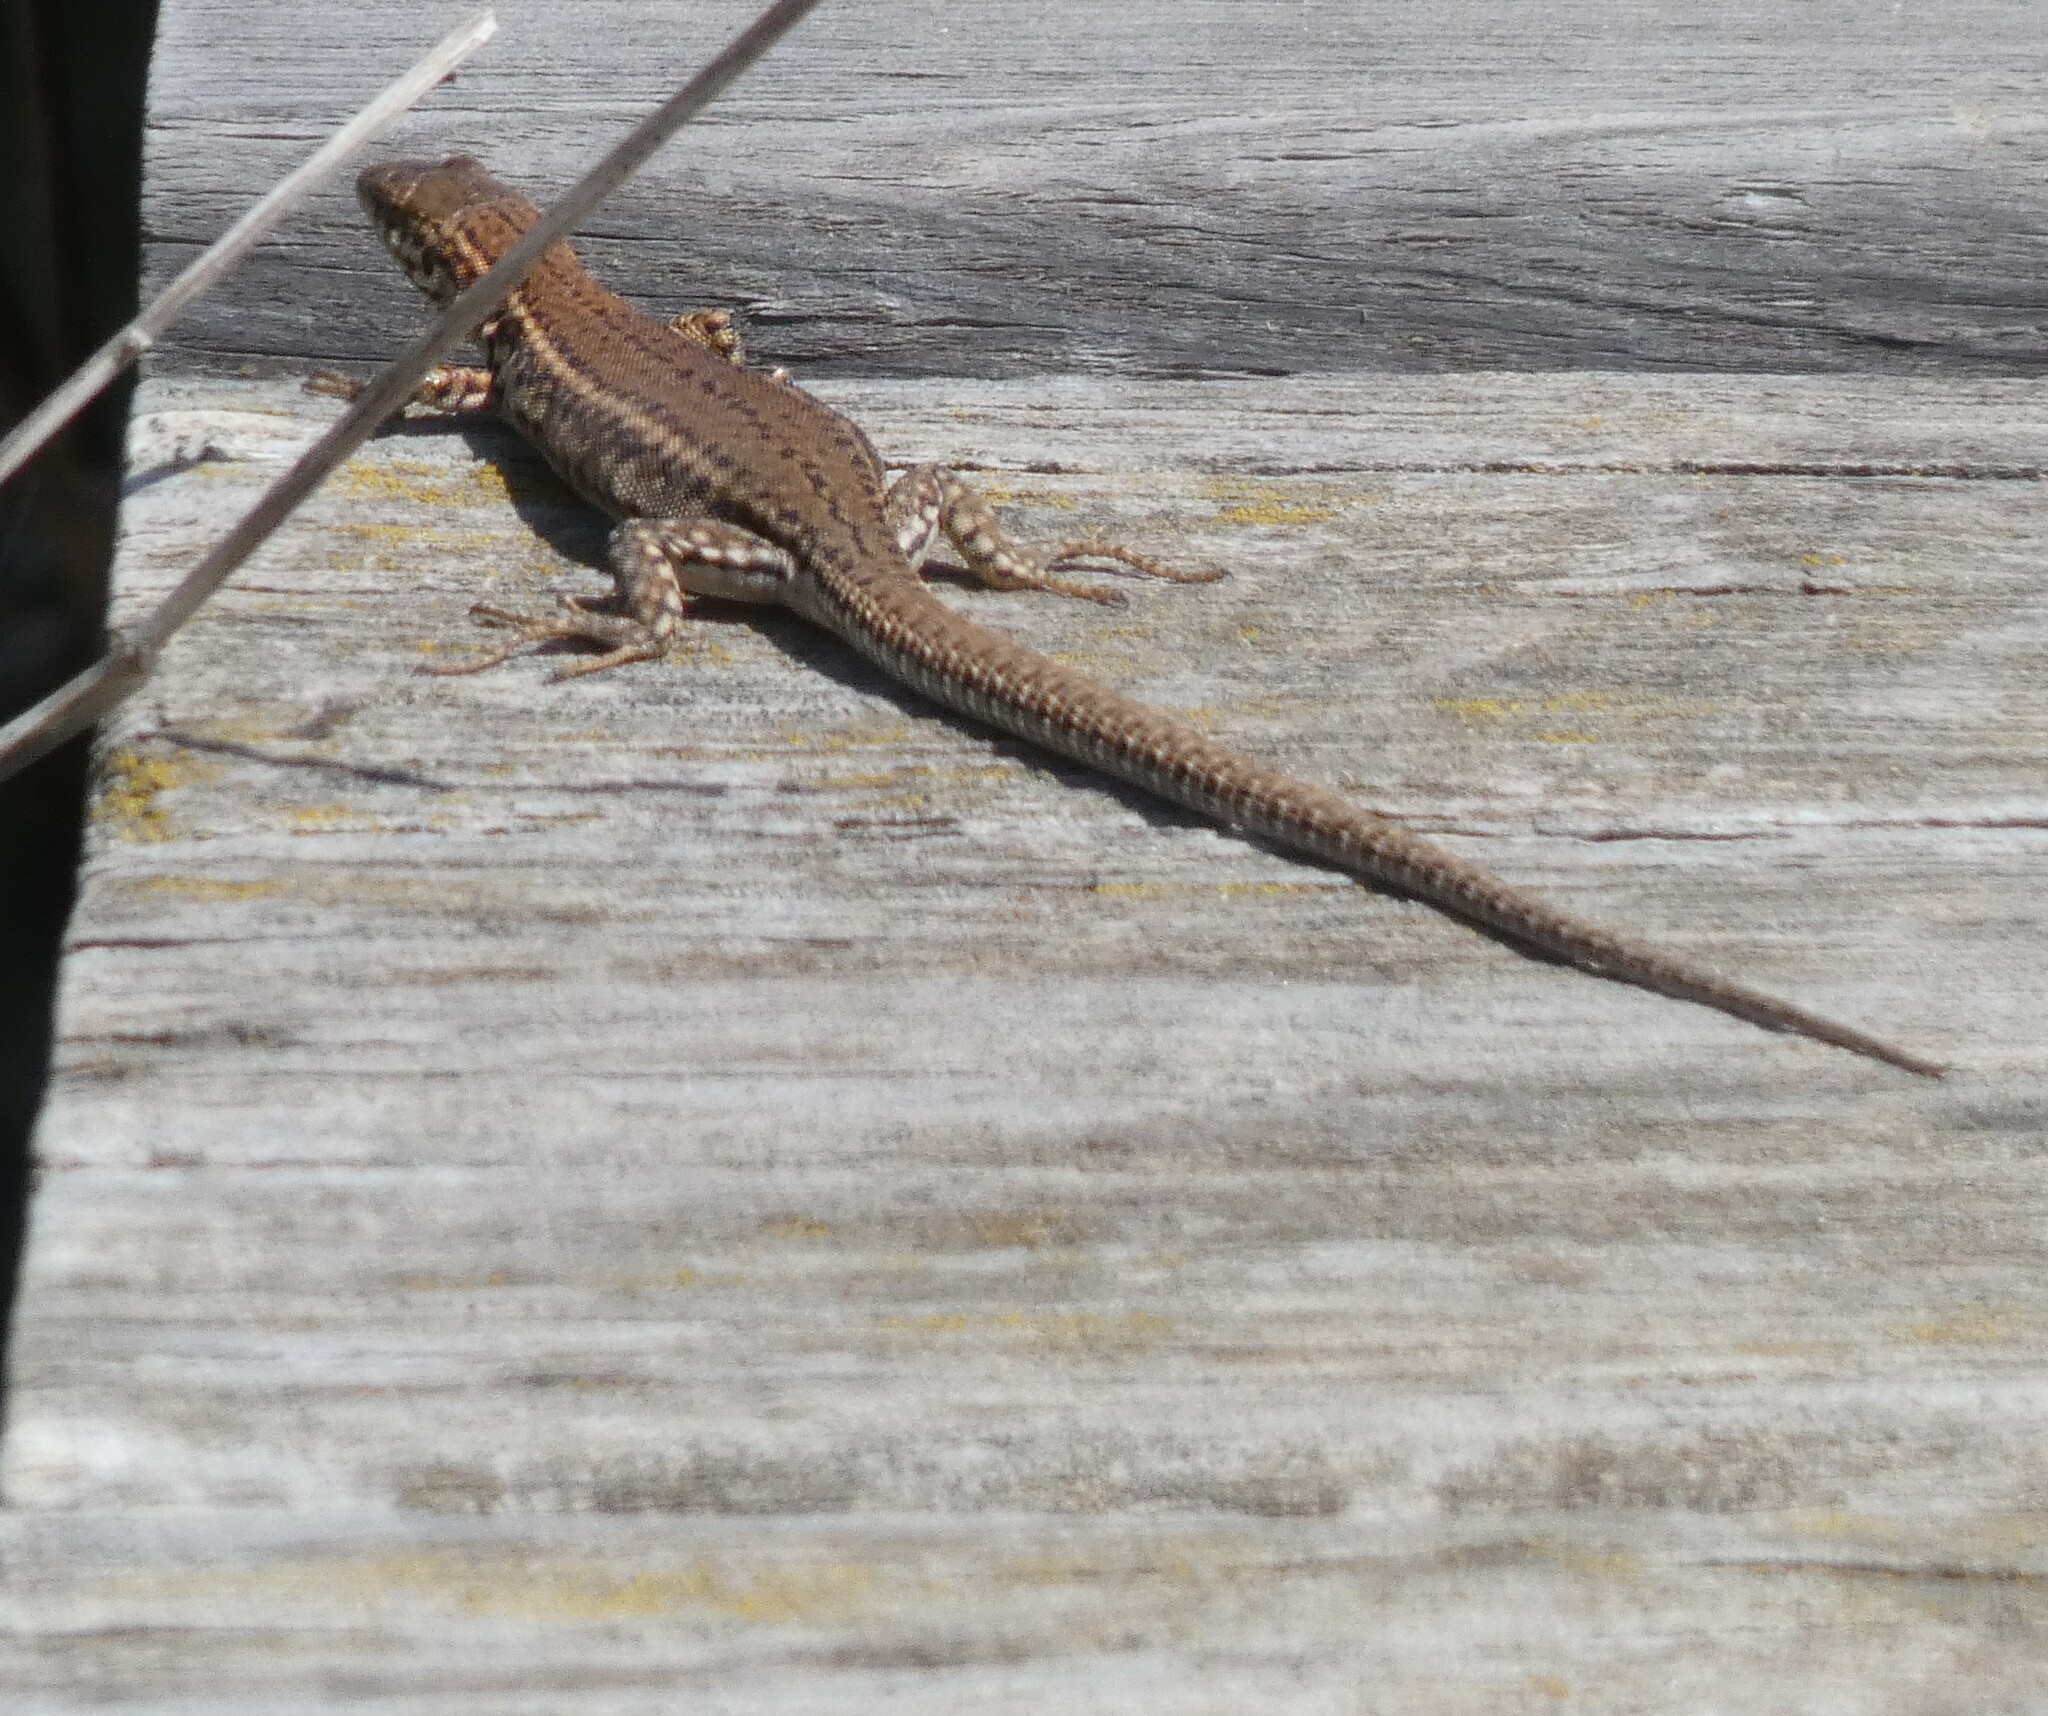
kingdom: Animalia
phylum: Chordata
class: Squamata
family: Lacertidae
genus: Podarcis
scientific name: Podarcis liolepis
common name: Catalonian wall lizard
